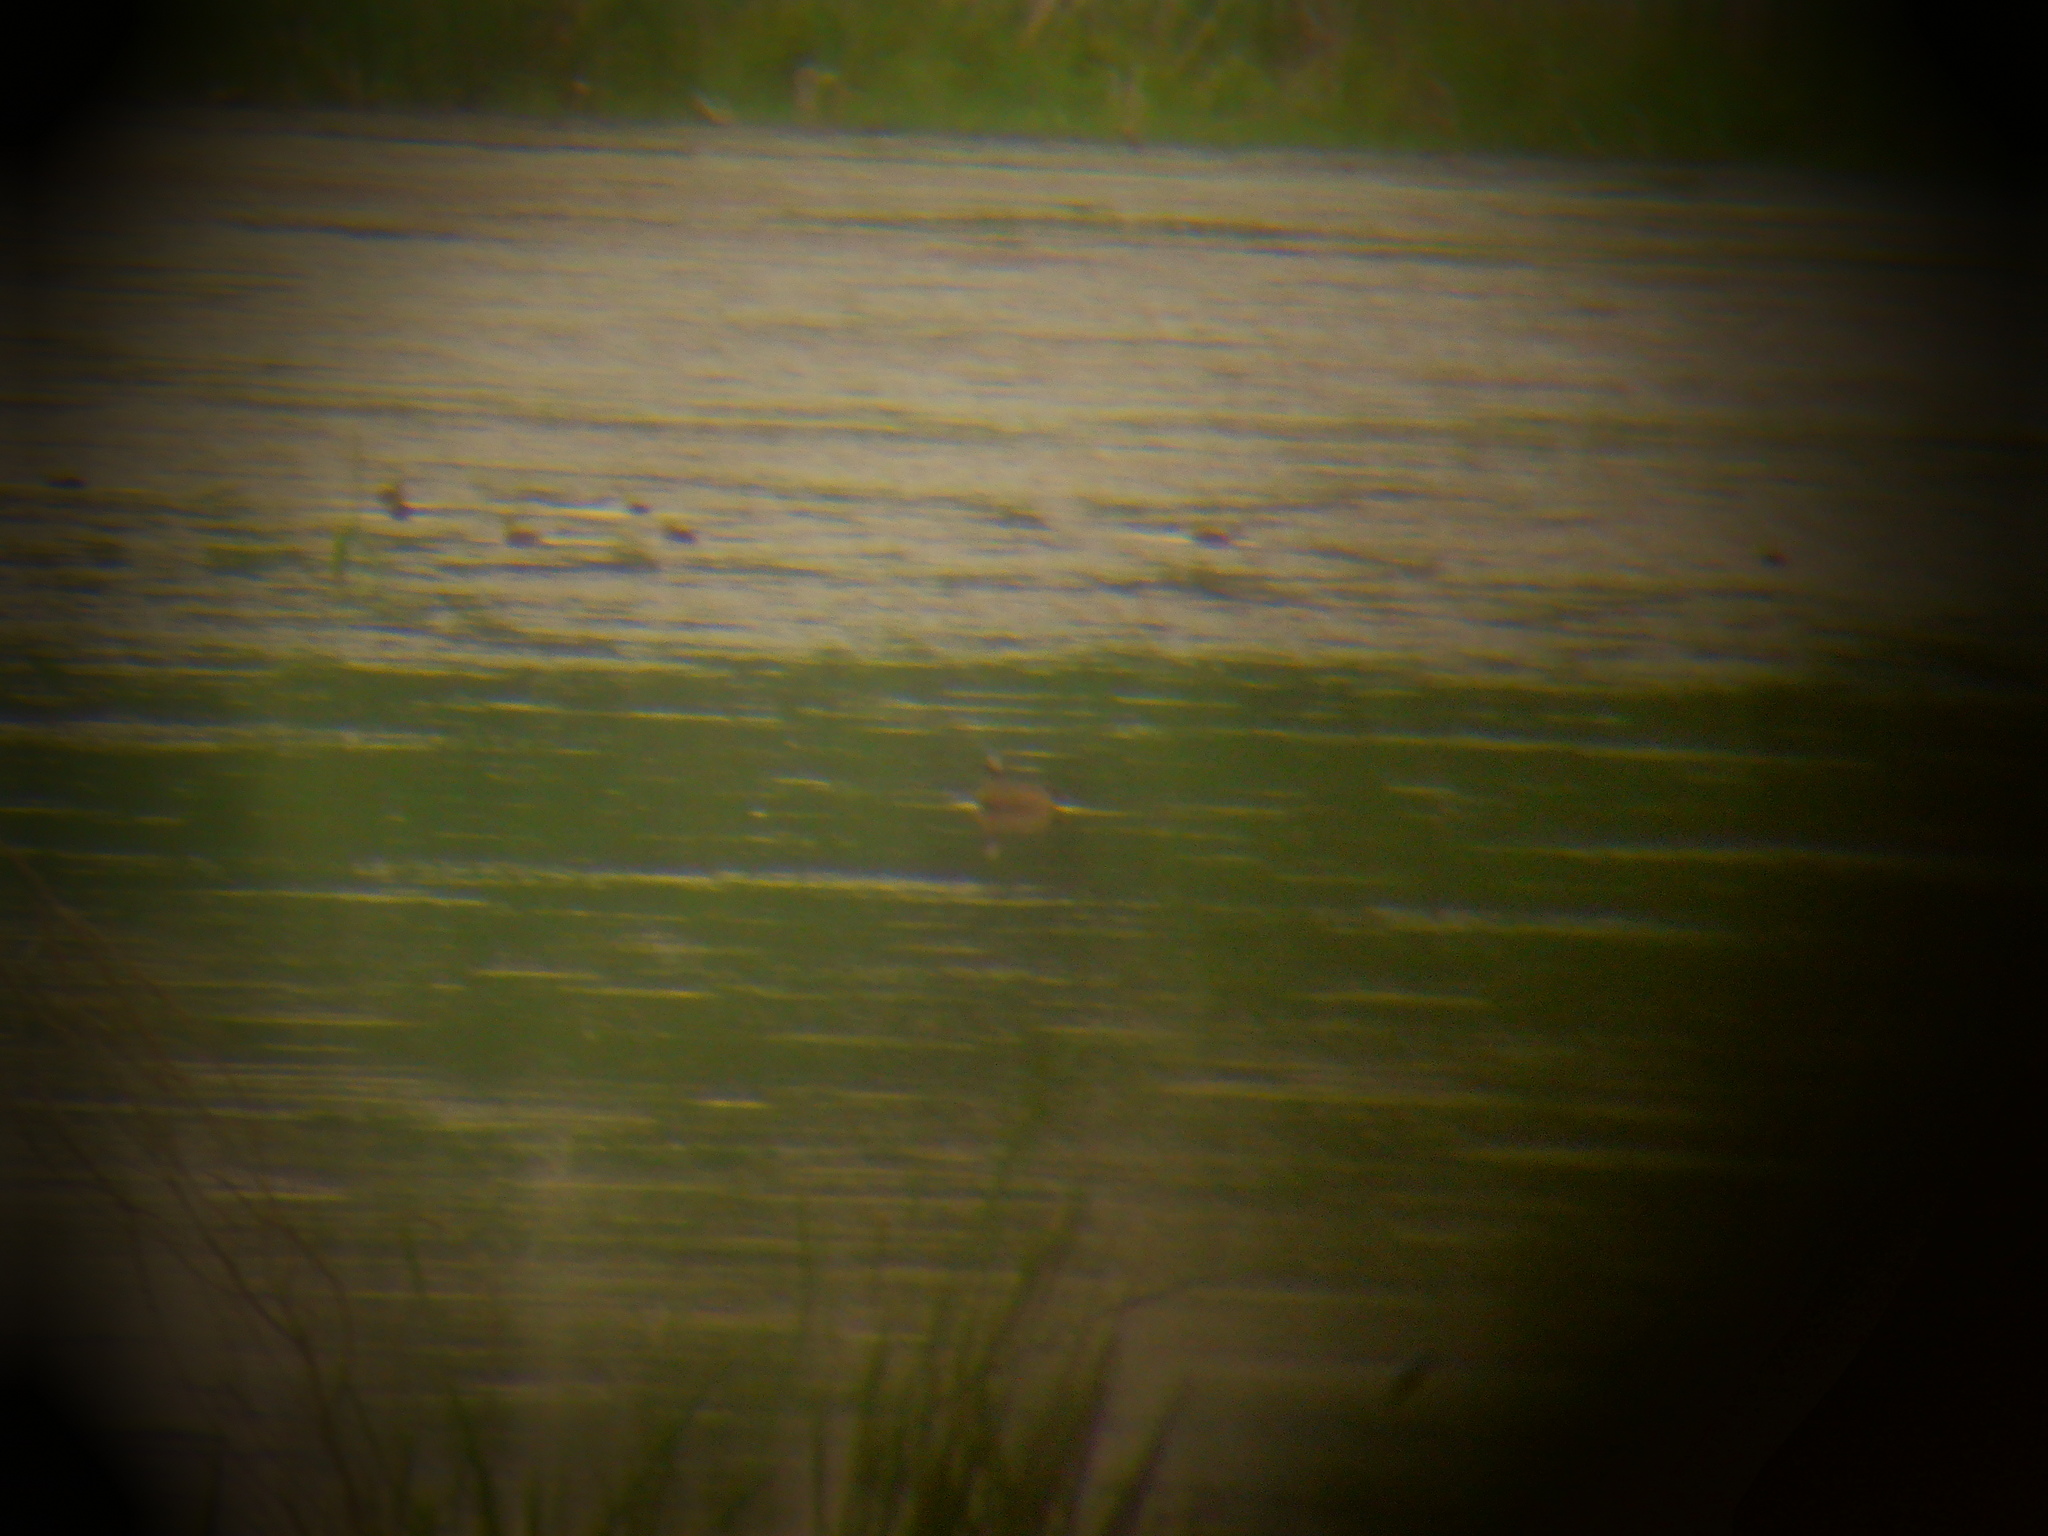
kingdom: Animalia
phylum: Chordata
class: Aves
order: Anseriformes
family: Anatidae
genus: Spatula
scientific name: Spatula discors
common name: Blue-winged teal
